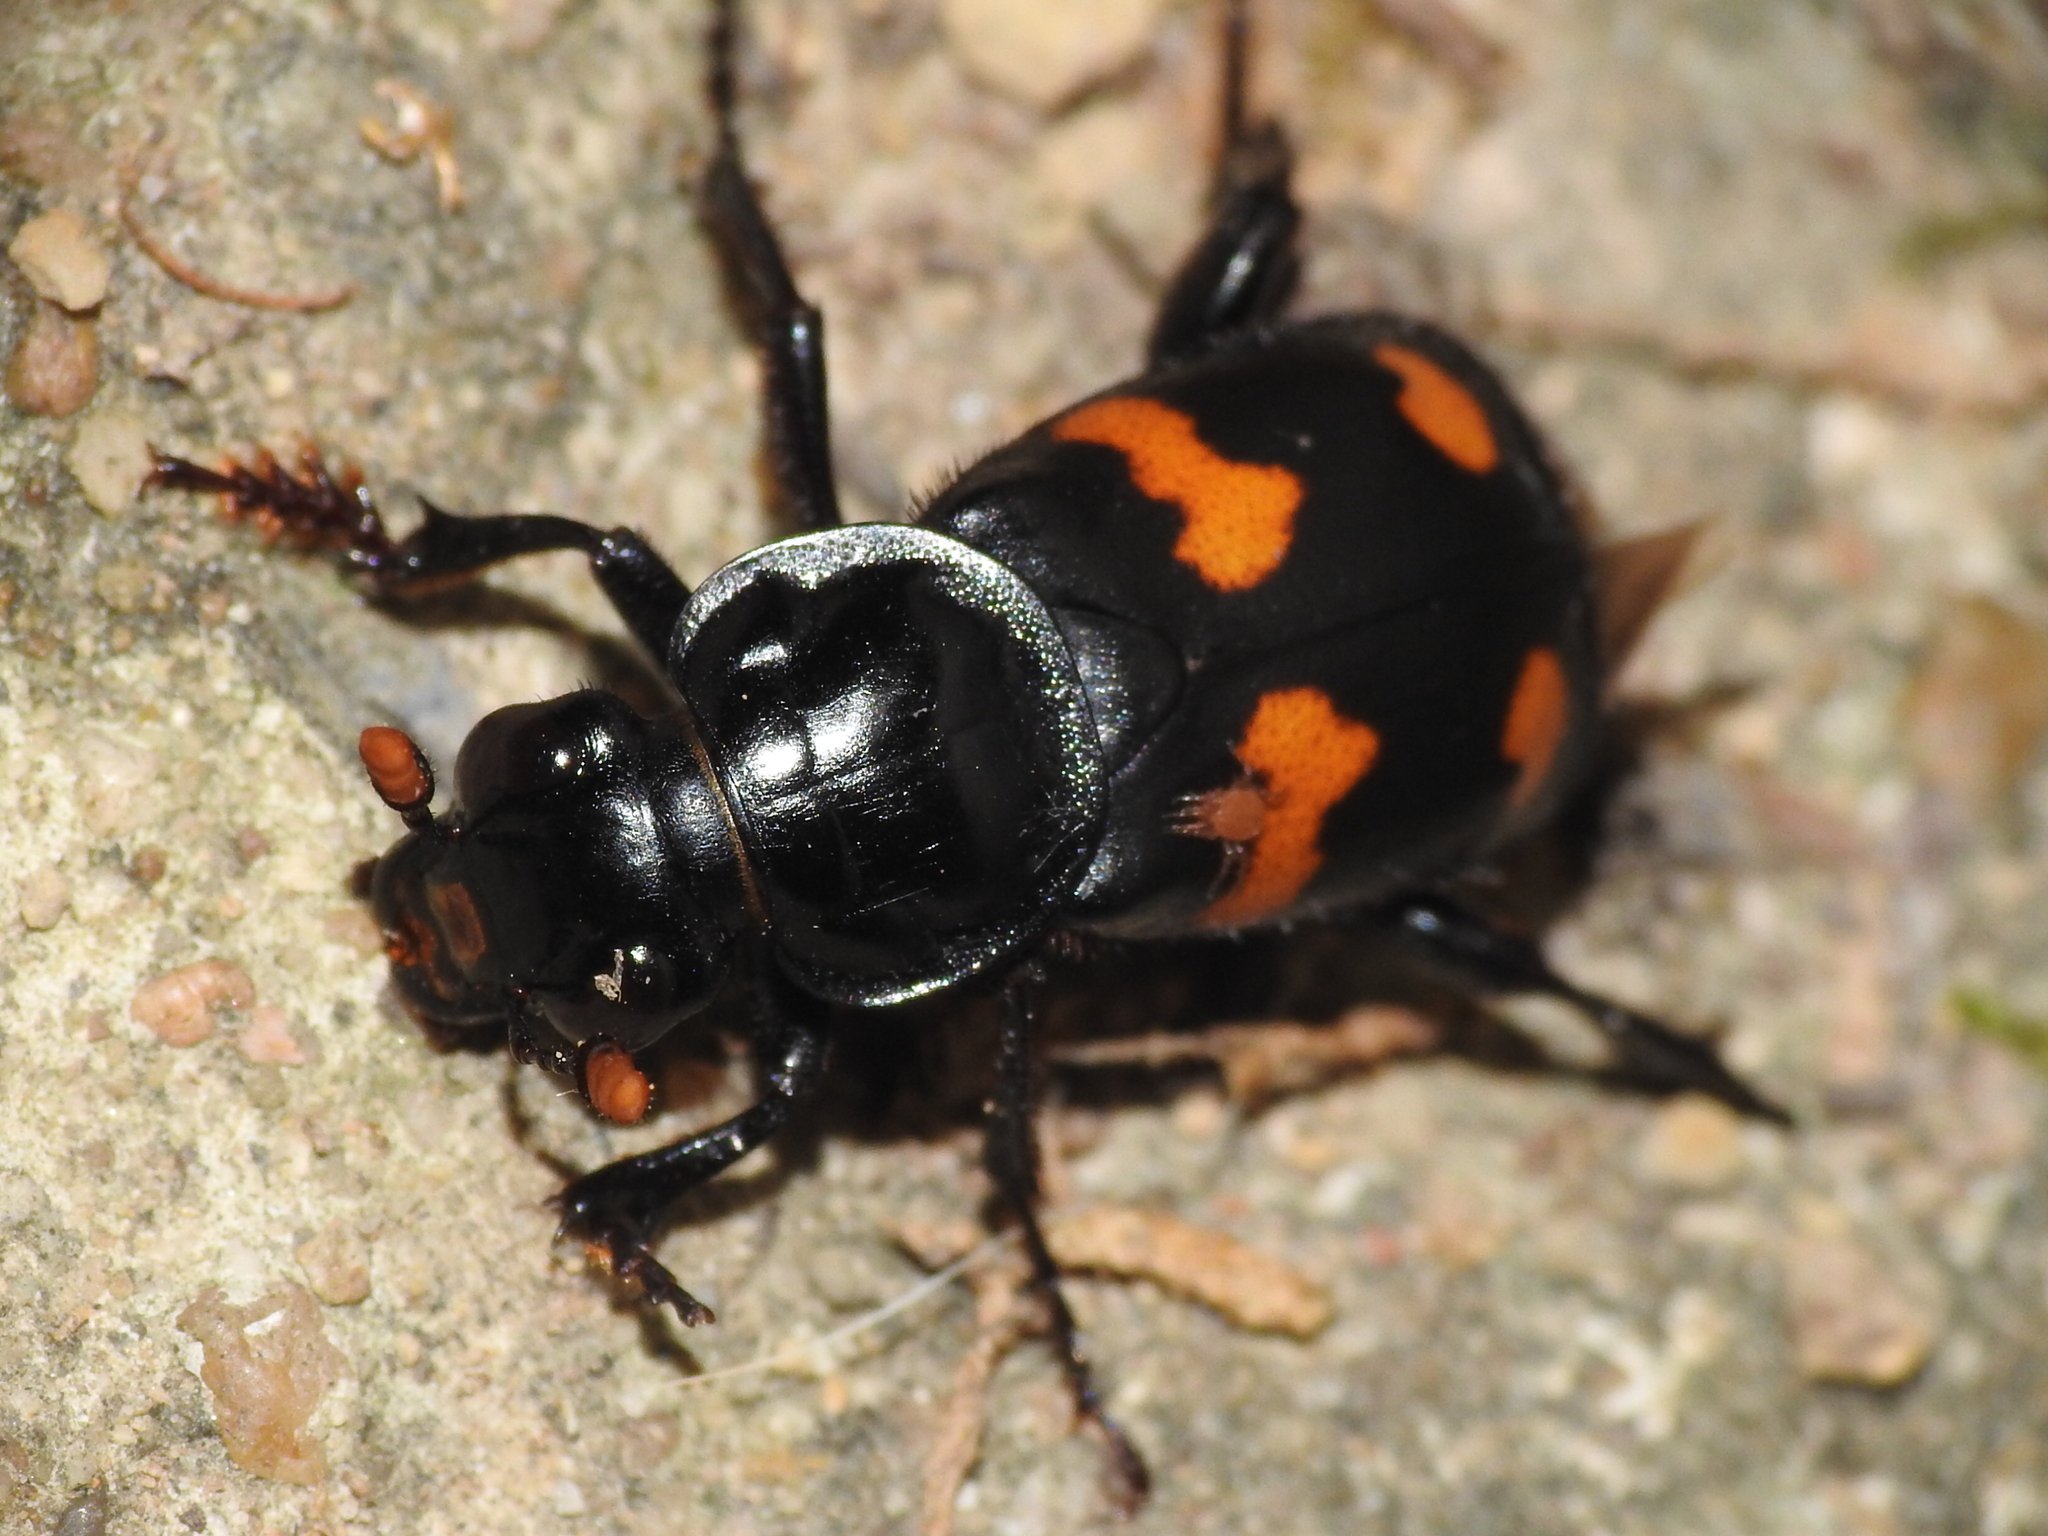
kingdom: Animalia
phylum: Arthropoda
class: Insecta
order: Coleoptera
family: Staphylinidae
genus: Nicrophorus
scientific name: Nicrophorus orbicollis
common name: Roundneck sexton beetle
